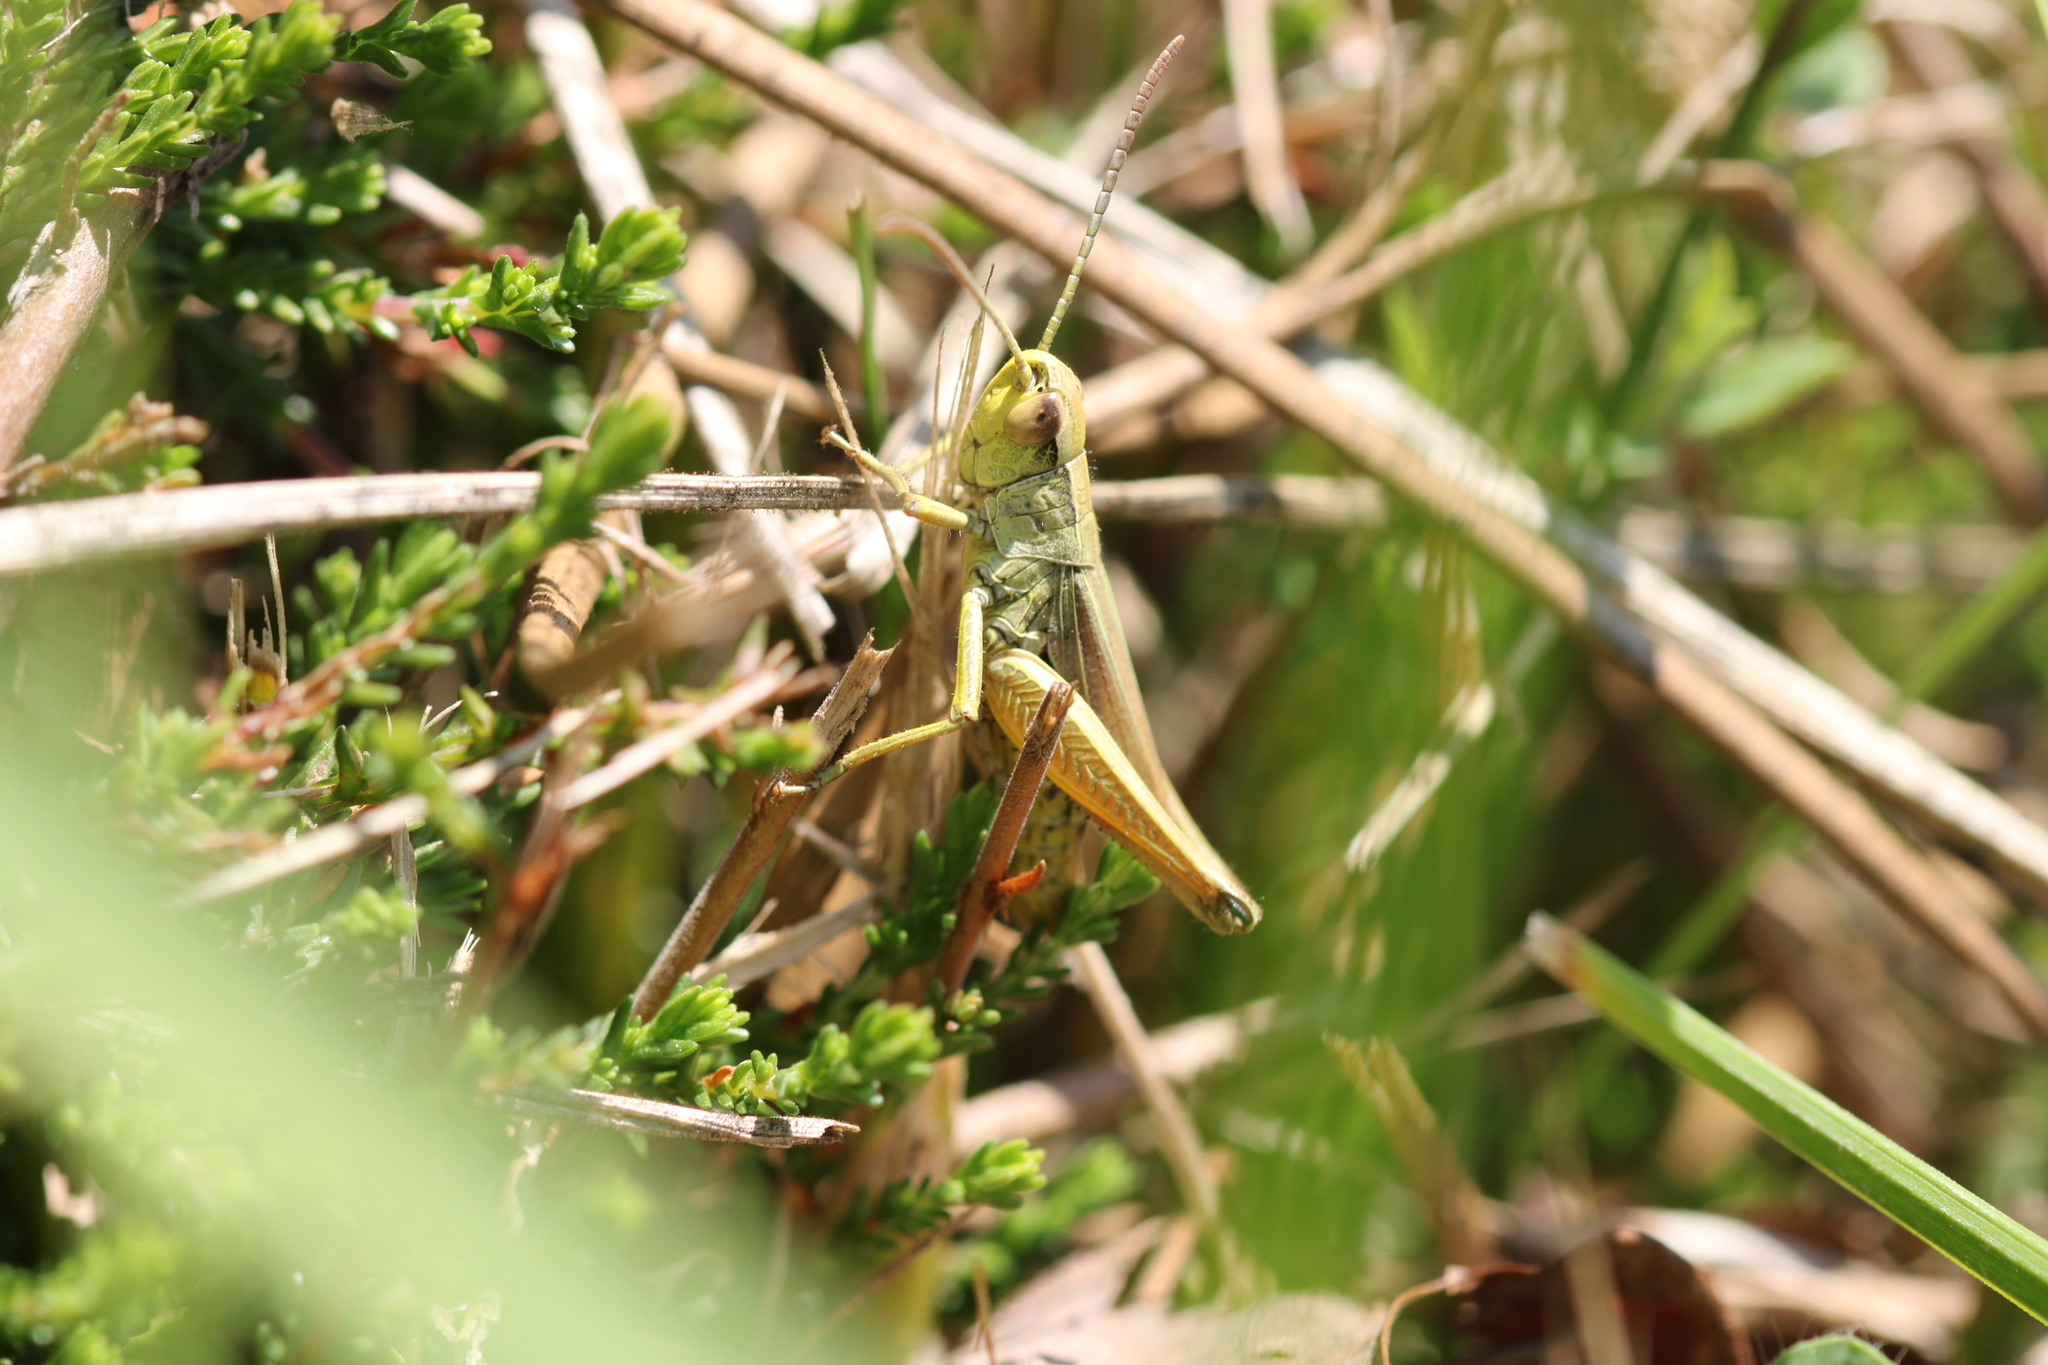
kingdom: Animalia
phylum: Arthropoda
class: Insecta
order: Orthoptera
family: Acrididae
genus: Pseudochorthippus
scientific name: Pseudochorthippus parallelus
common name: Meadow grasshopper
